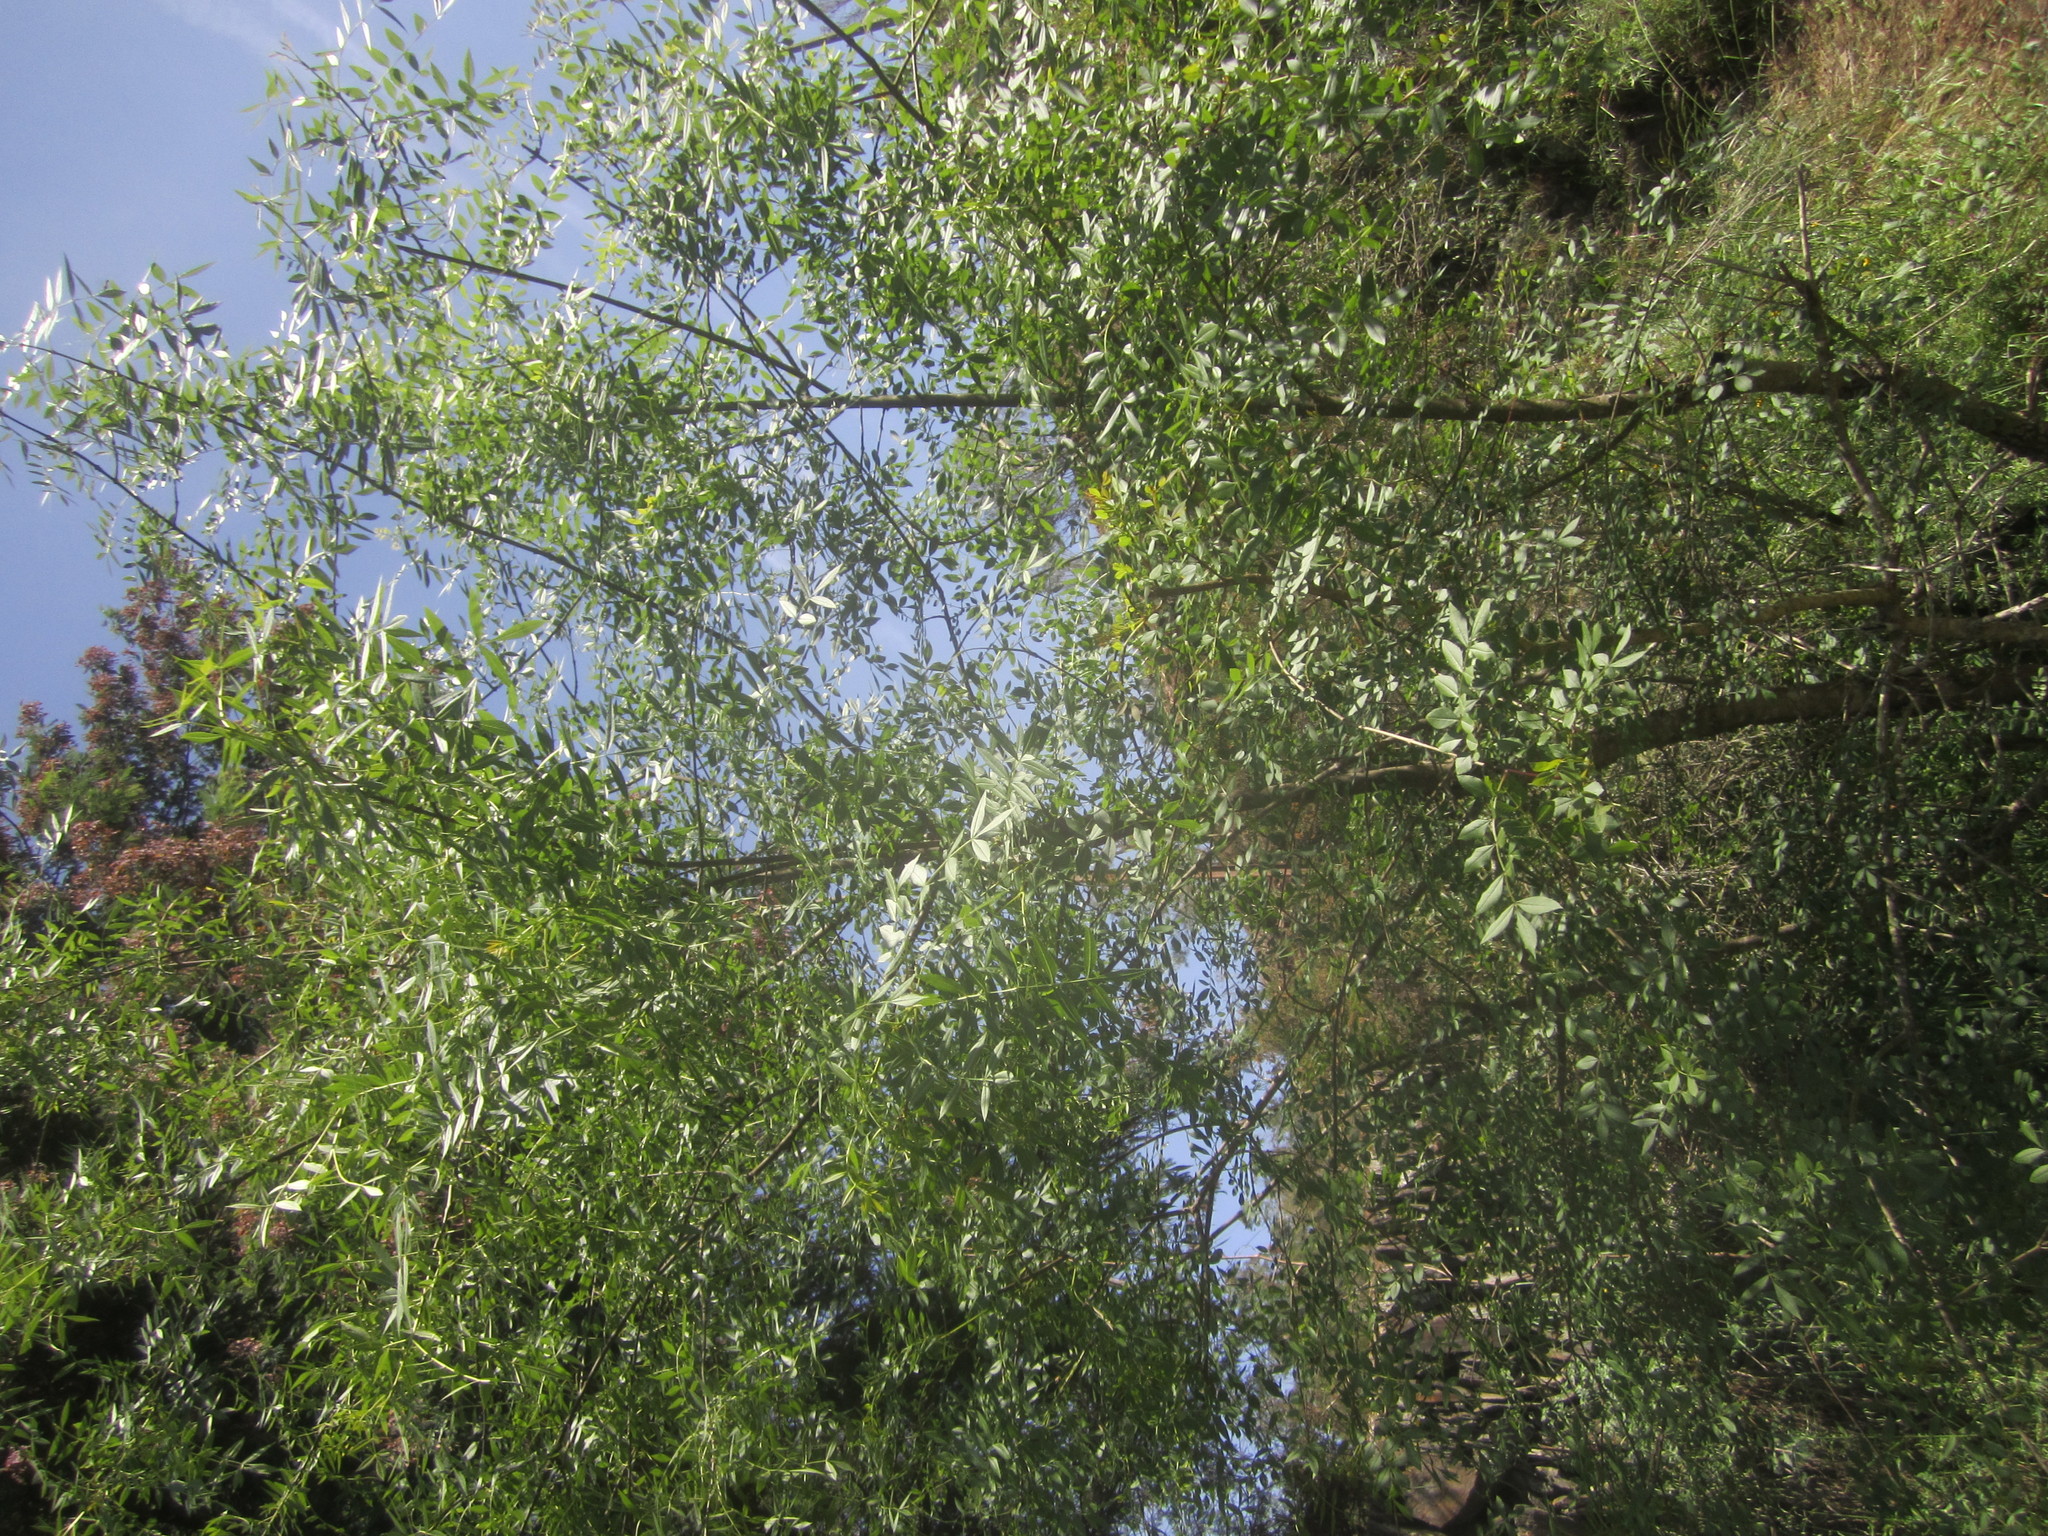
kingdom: Plantae
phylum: Tracheophyta
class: Magnoliopsida
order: Lamiales
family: Oleaceae
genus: Fraxinus
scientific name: Fraxinus angustifolia
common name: Narrow-leafed ash
